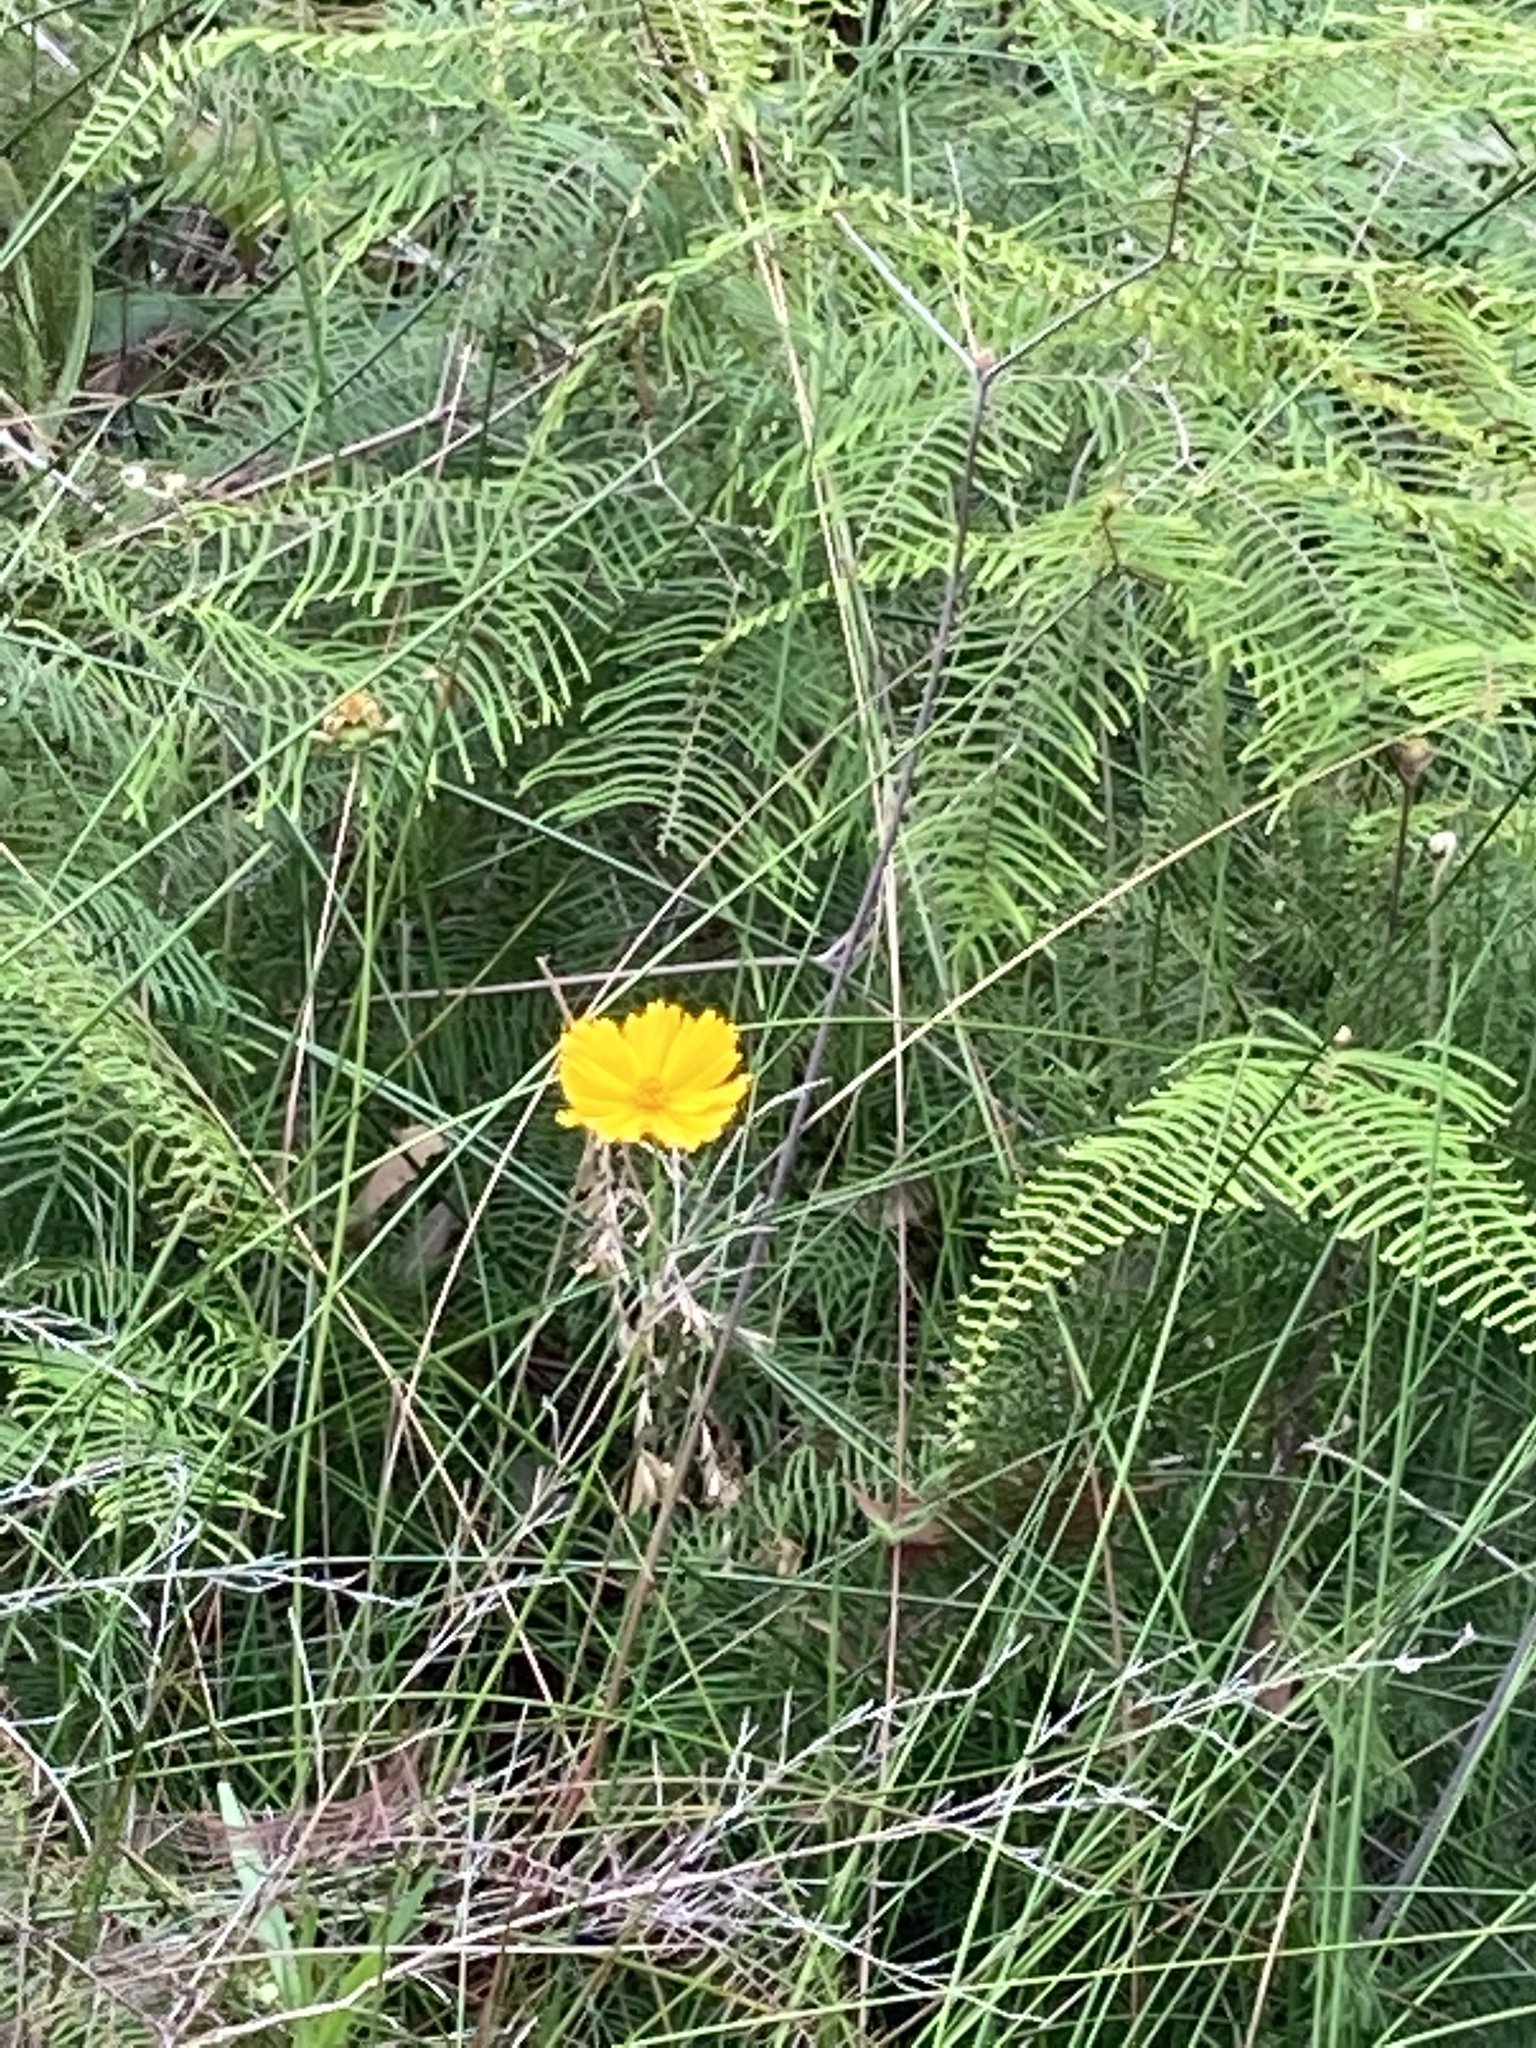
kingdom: Plantae
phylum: Tracheophyta
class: Magnoliopsida
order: Asterales
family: Asteraceae
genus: Coreopsis
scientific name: Coreopsis lanceolata
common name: Garden coreopsis
